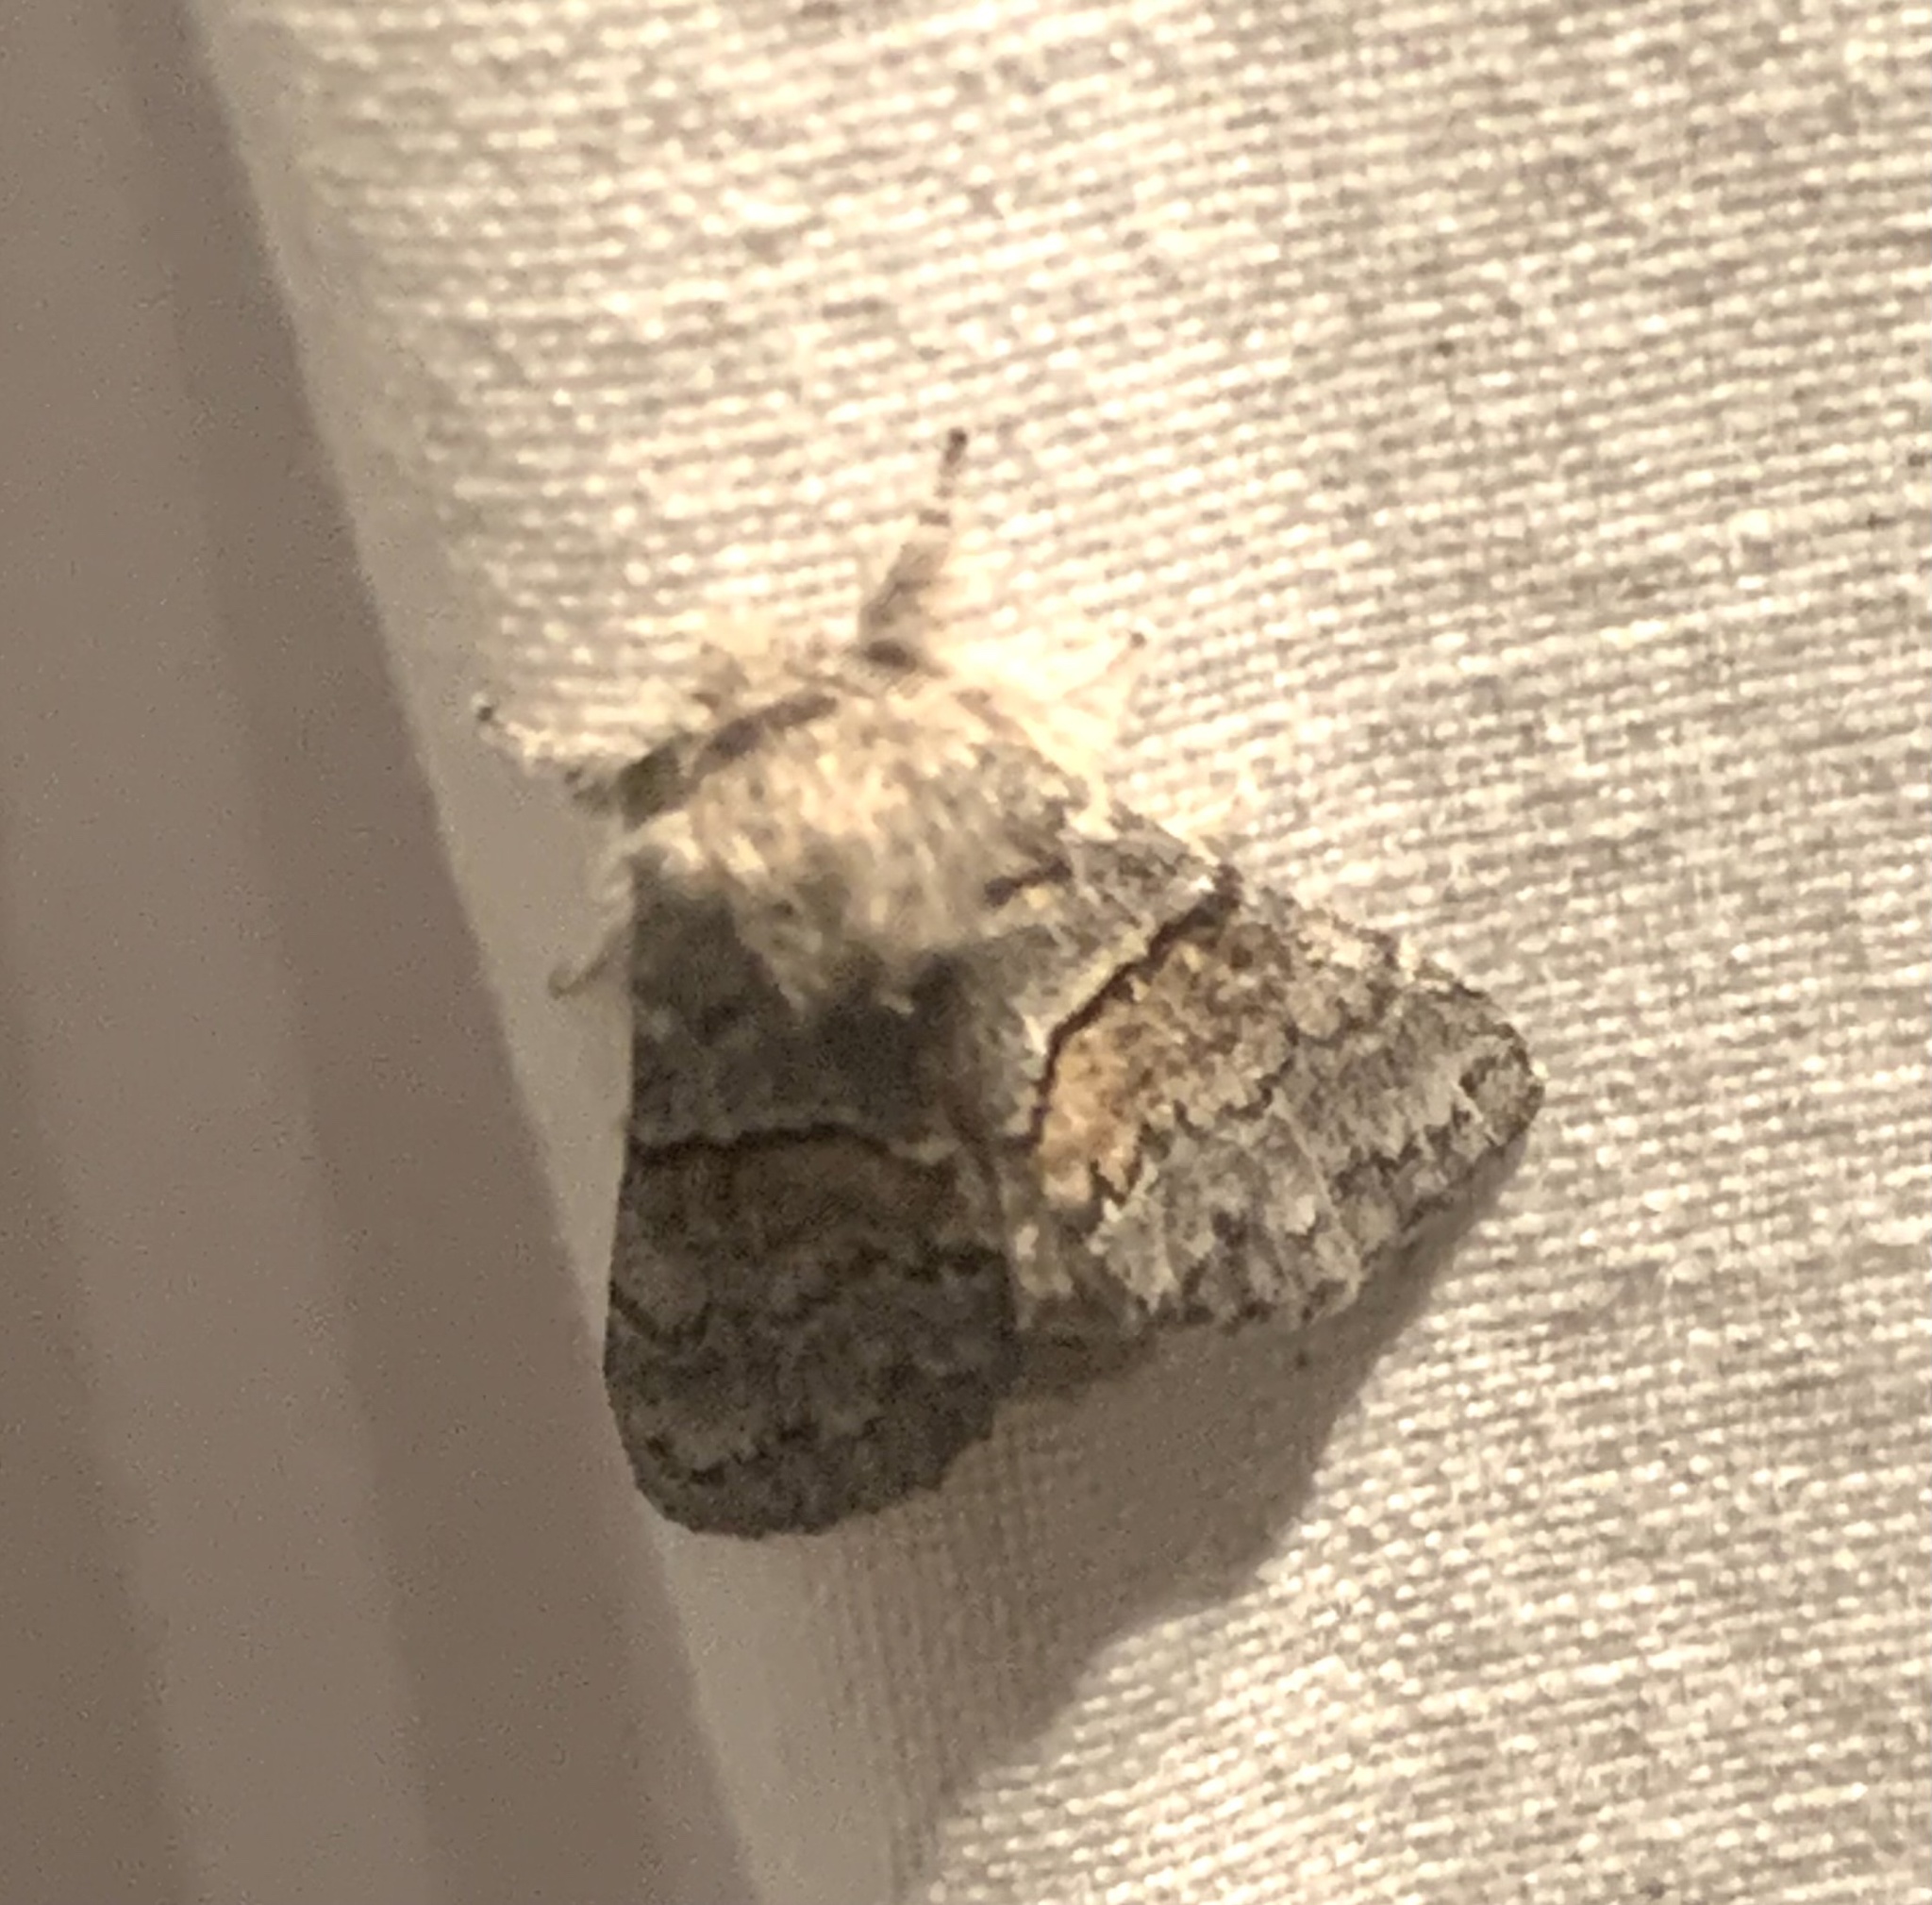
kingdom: Animalia
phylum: Arthropoda
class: Insecta
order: Lepidoptera
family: Notodontidae
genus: Gluphisia
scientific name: Gluphisia septentrionis
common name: Common gluphisia
